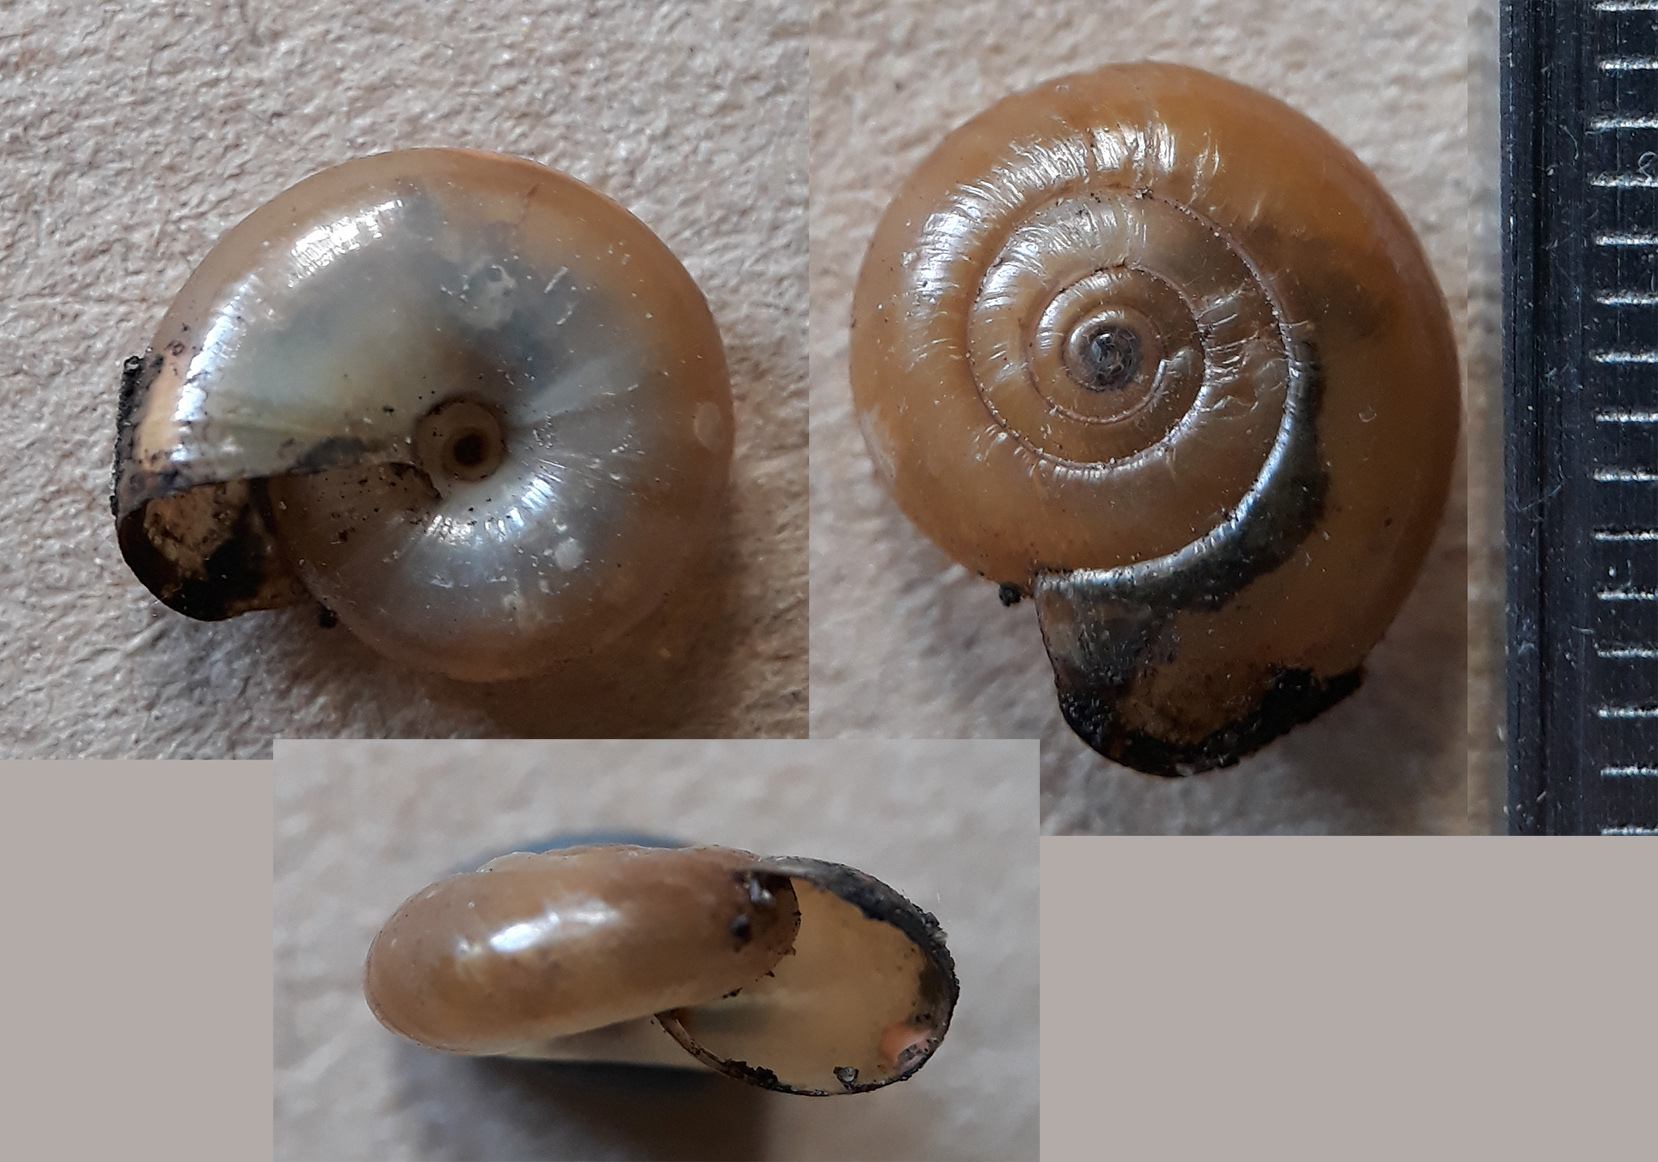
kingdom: Animalia
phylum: Mollusca
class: Gastropoda
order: Stylommatophora
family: Oxychilidae
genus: Oxychilus
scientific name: Oxychilus draparnaudi
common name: Draparnaud's glass snail
